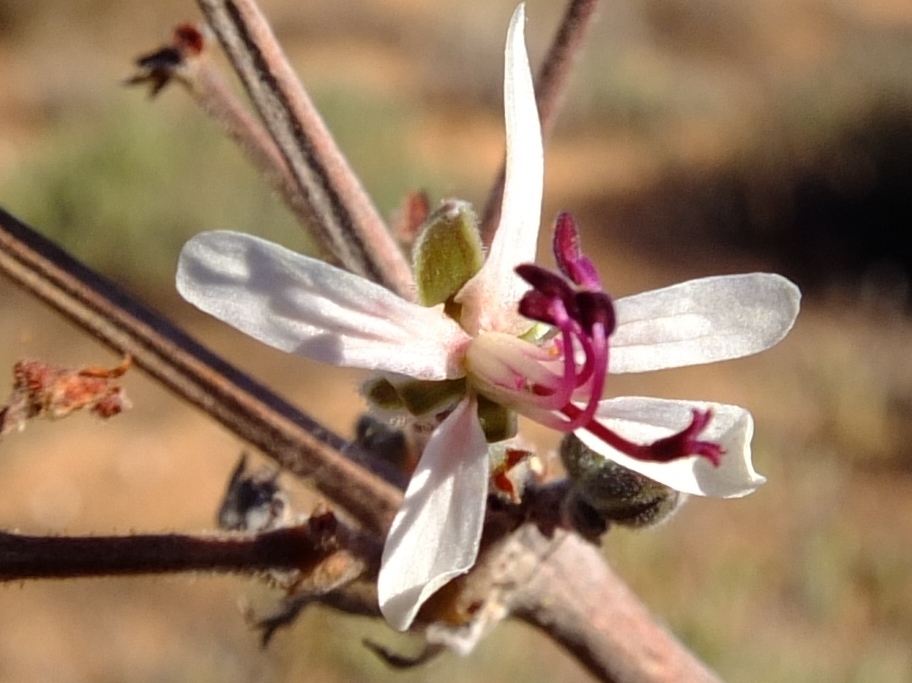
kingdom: Plantae
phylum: Tracheophyta
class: Magnoliopsida
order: Geraniales
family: Geraniaceae
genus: Pelargonium
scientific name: Pelargonium carnosum
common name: Fleshy-stalk pelargonium
